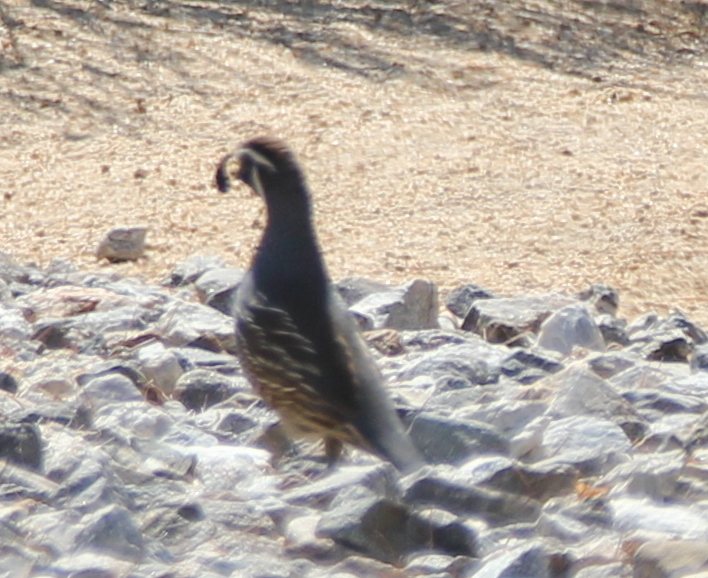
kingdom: Animalia
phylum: Chordata
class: Aves
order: Galliformes
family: Odontophoridae
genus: Callipepla
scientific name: Callipepla californica
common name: California quail
